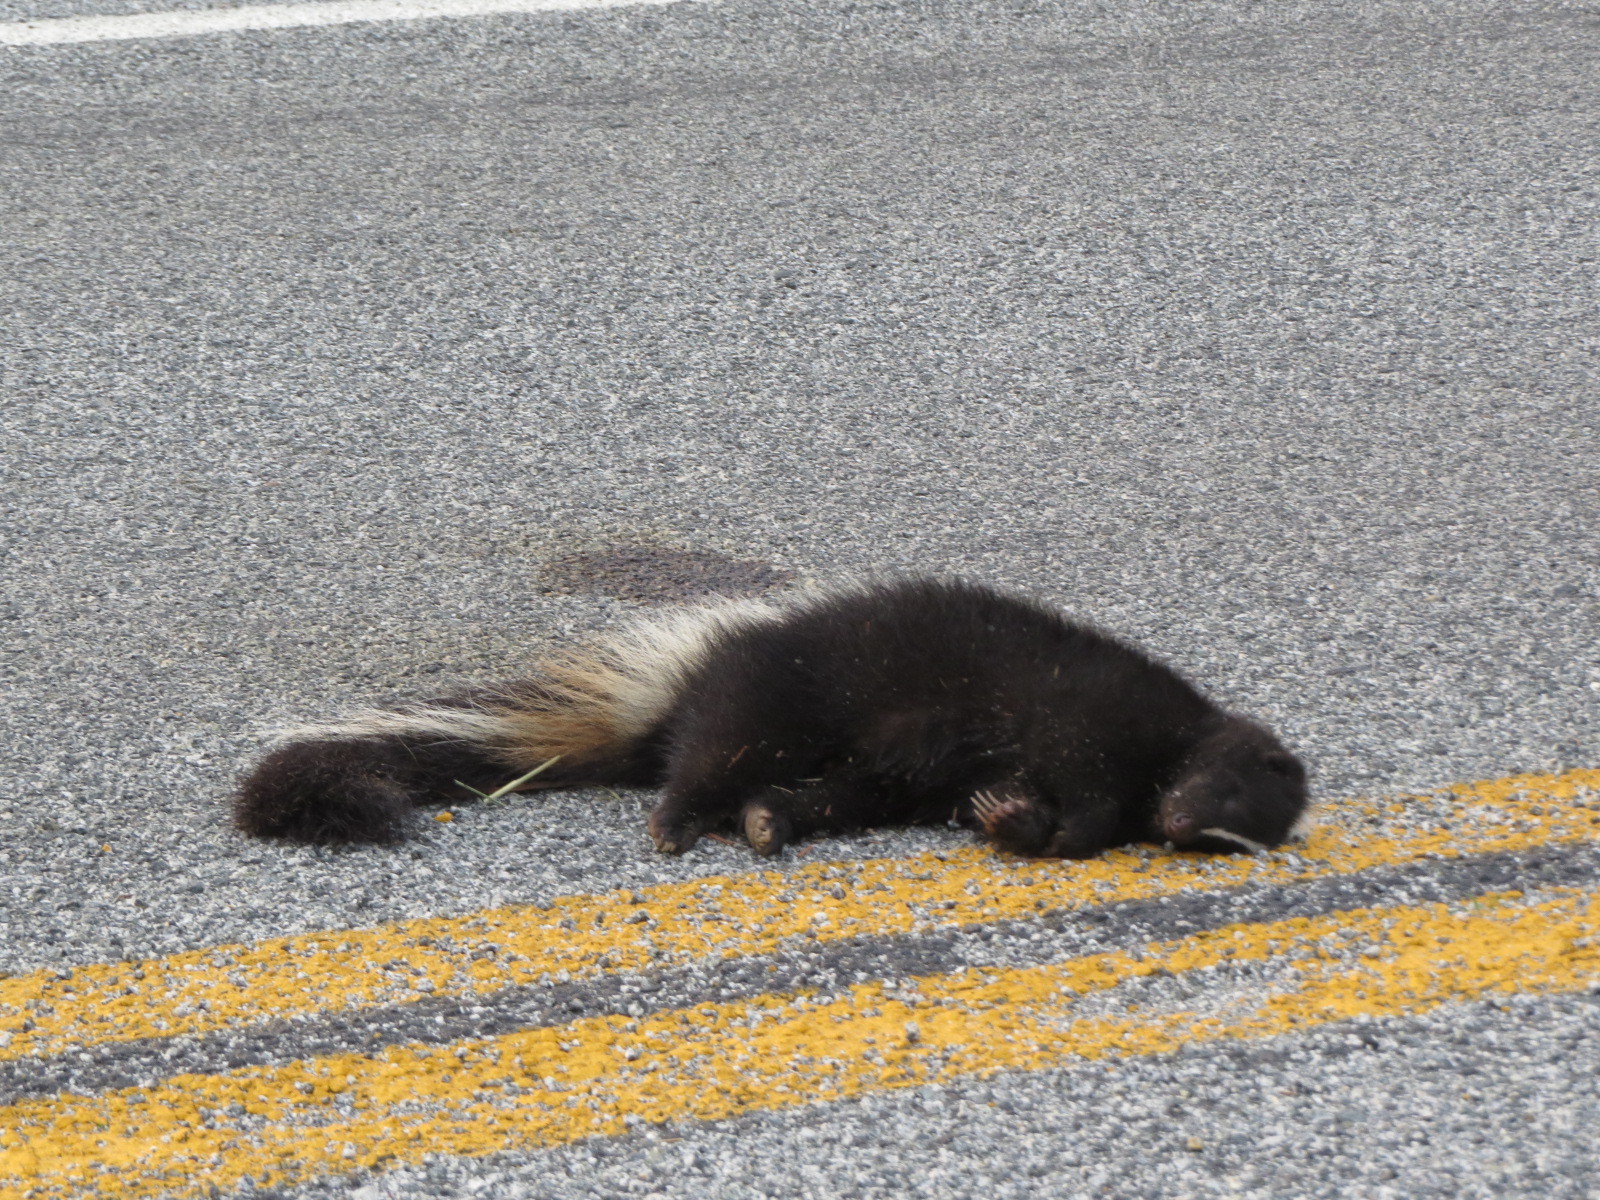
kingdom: Animalia
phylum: Chordata
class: Mammalia
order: Carnivora
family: Mephitidae
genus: Mephitis
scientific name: Mephitis mephitis
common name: Striped skunk
